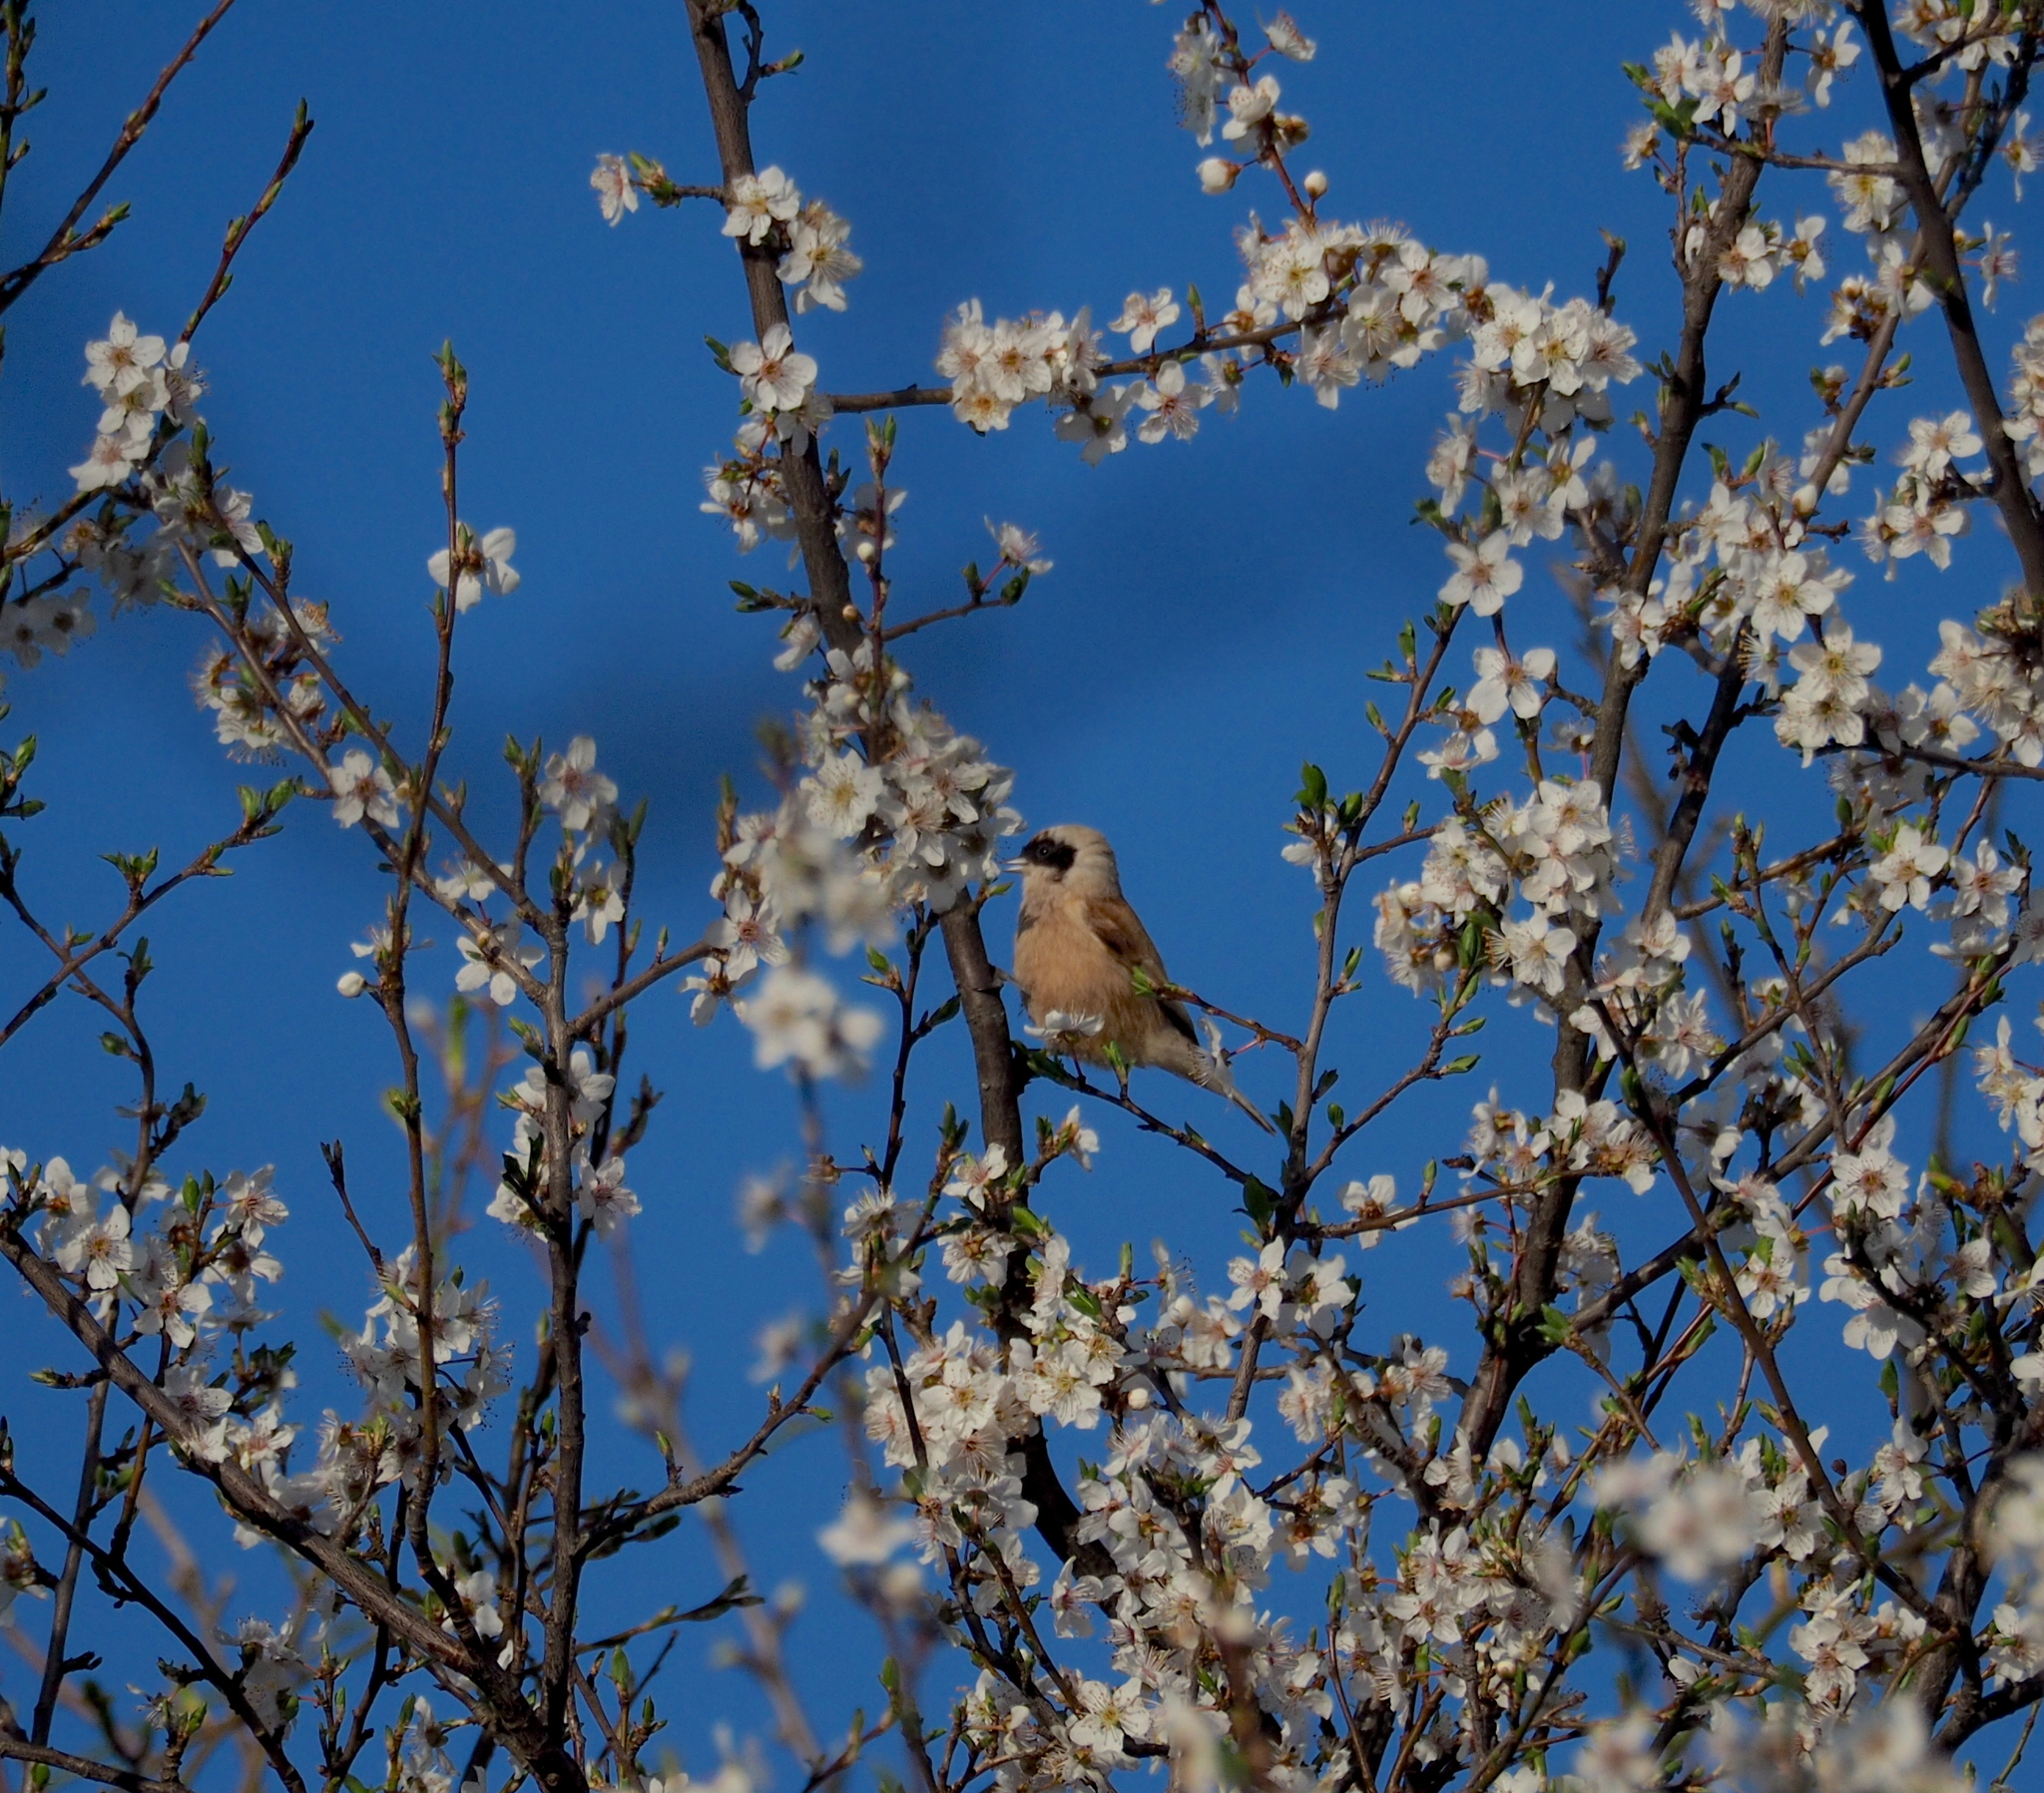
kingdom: Animalia
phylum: Chordata
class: Aves
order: Passeriformes
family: Remizidae
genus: Remiz
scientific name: Remiz pendulinus
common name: Eurasian penduline tit
